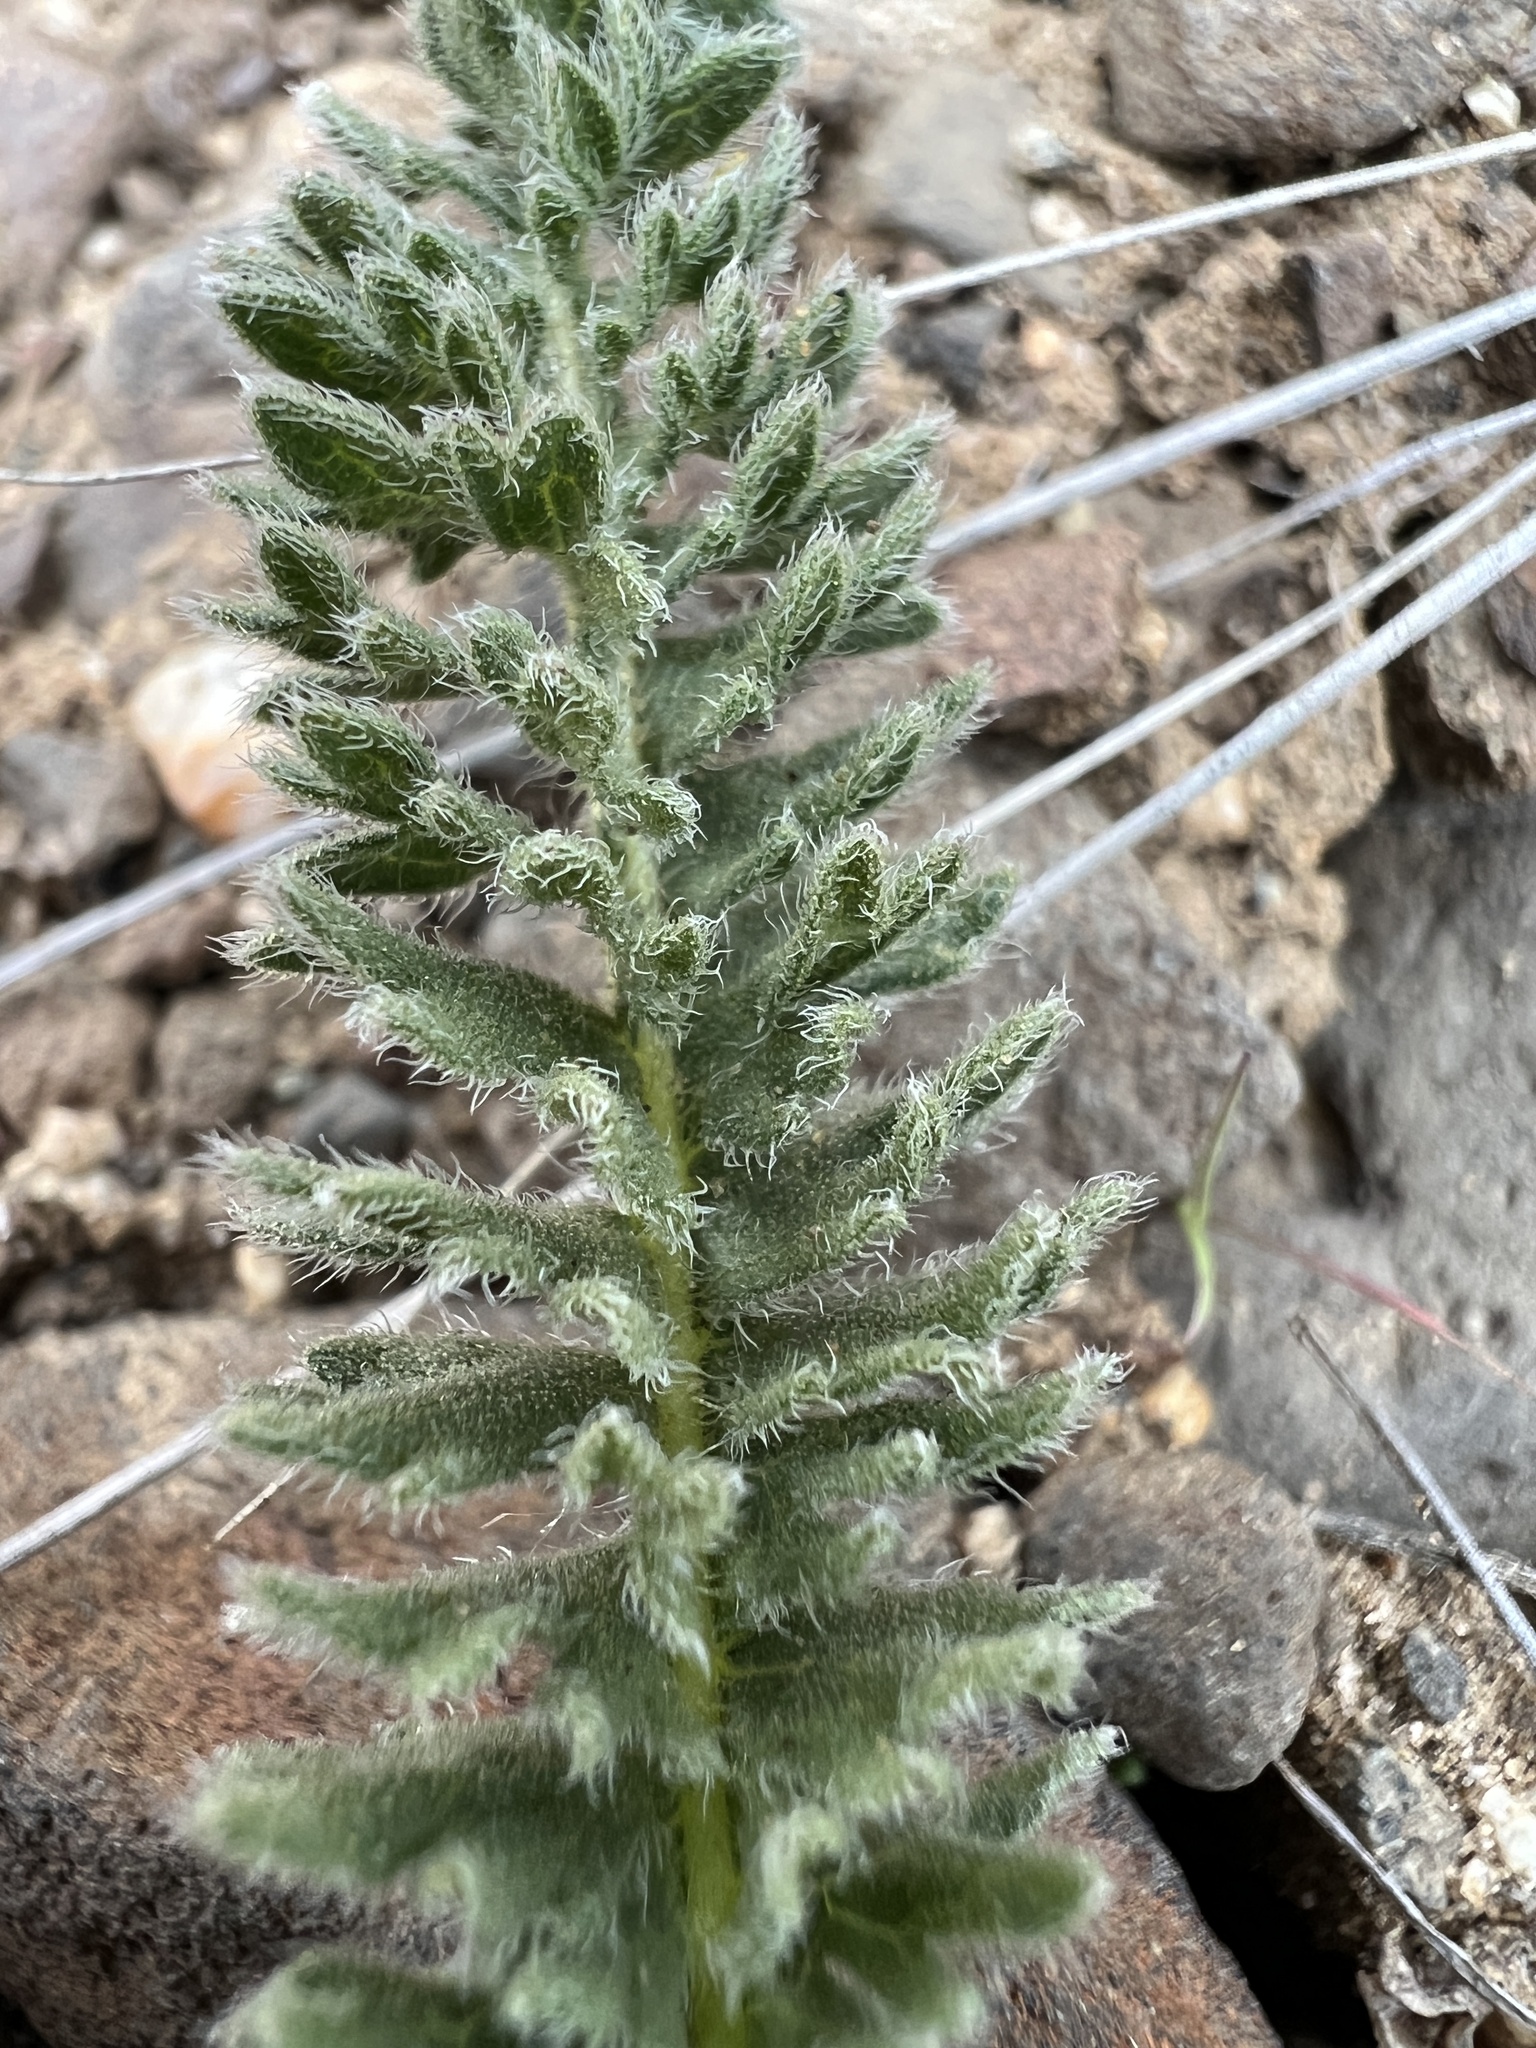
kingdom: Plantae
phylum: Tracheophyta
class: Magnoliopsida
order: Asterales
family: Asteraceae
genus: Balsamorhiza
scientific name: Balsamorhiza hookeri
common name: Hooker's balsamroot
